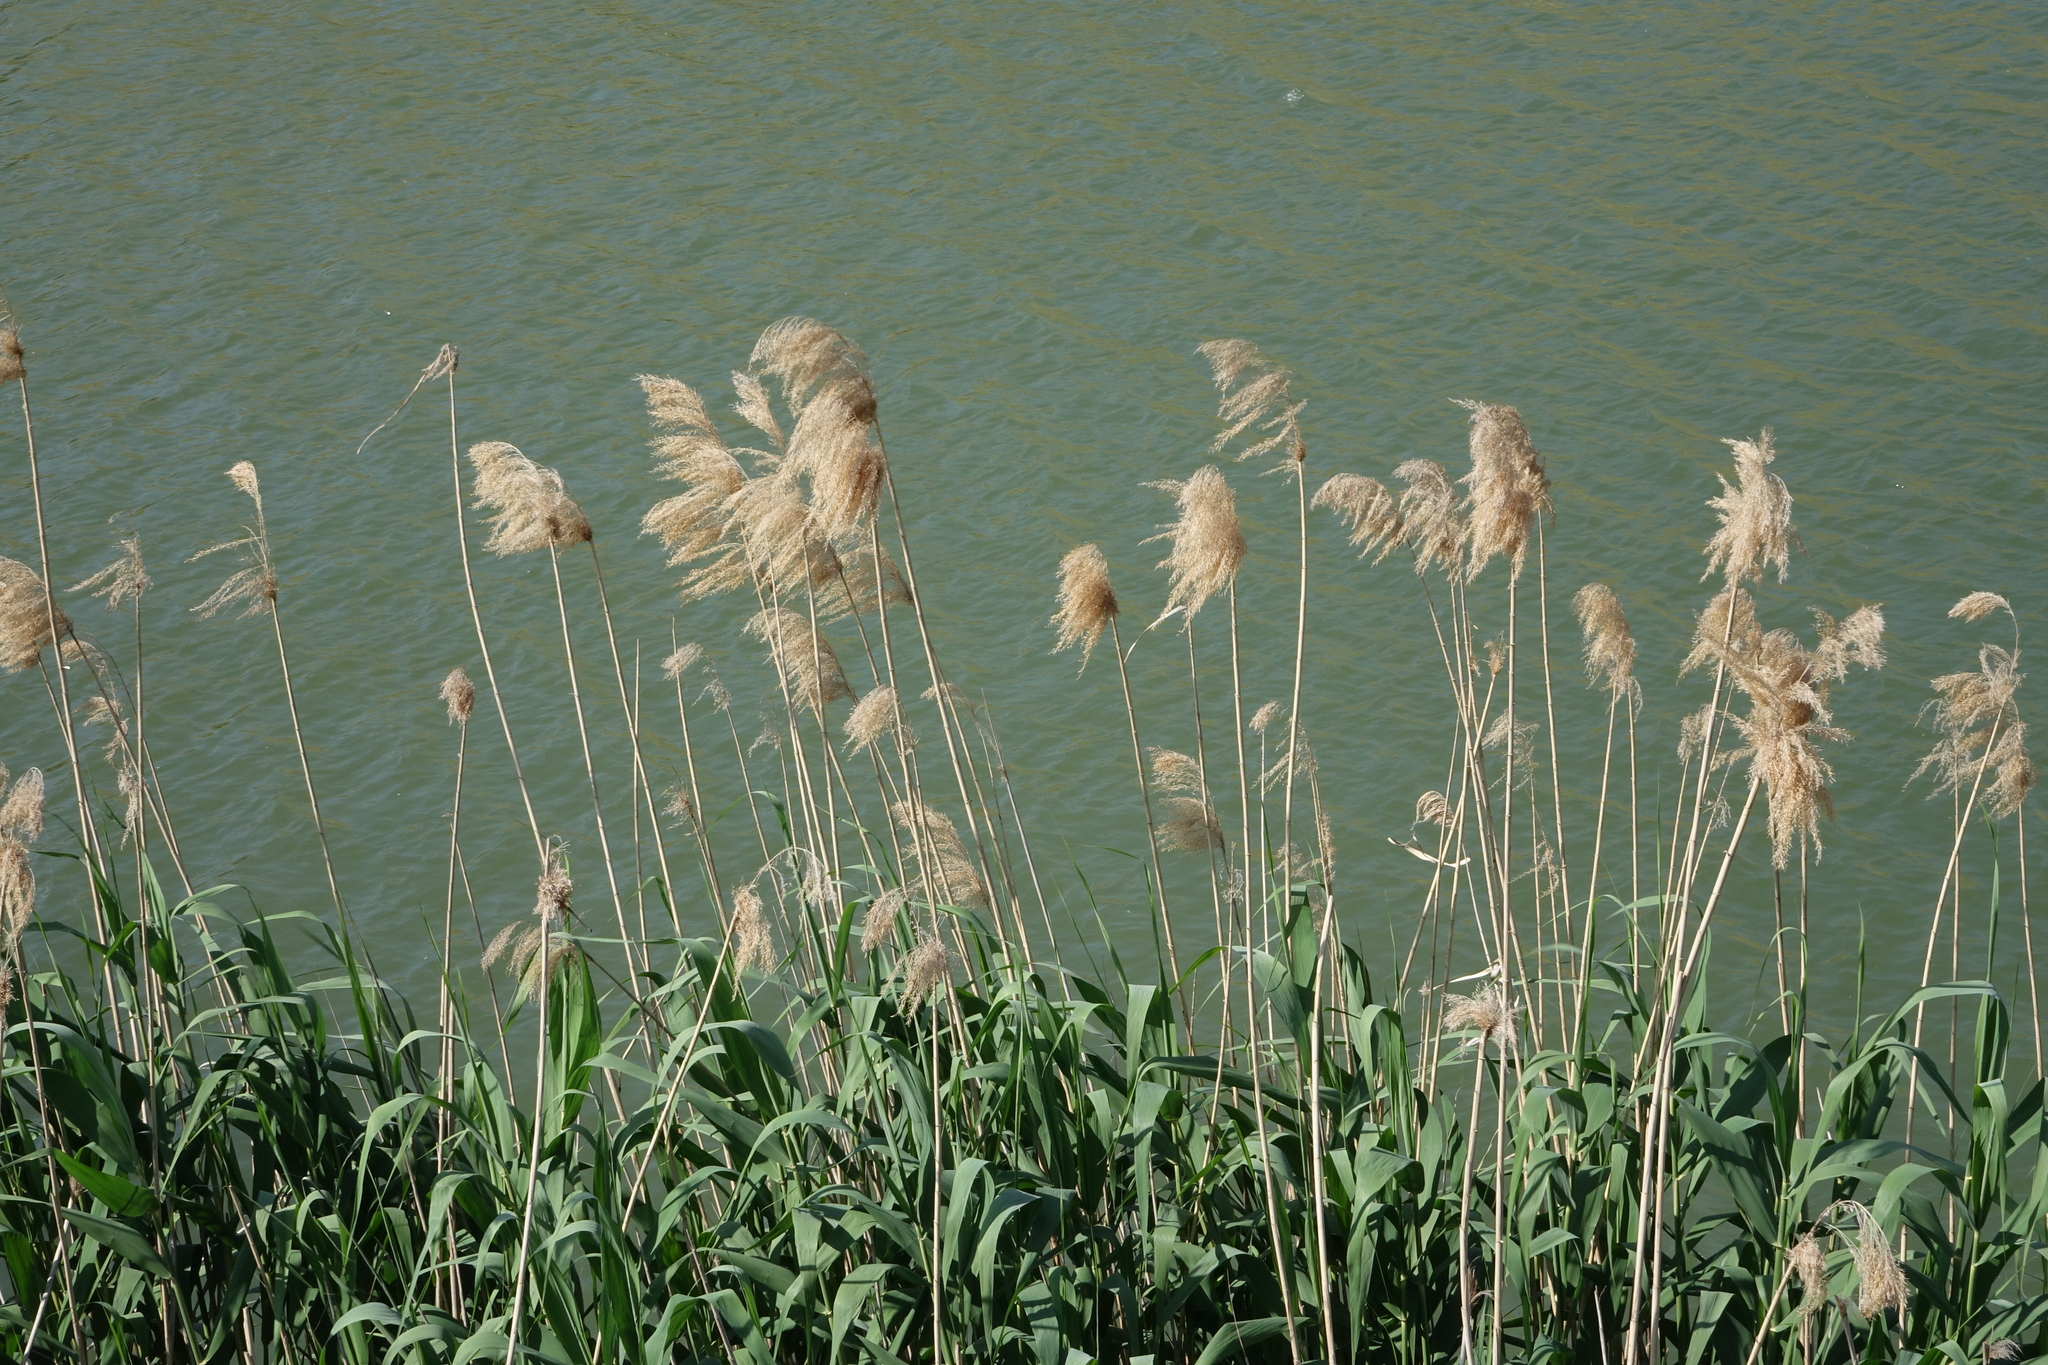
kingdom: Plantae
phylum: Tracheophyta
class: Liliopsida
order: Poales
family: Poaceae
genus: Phragmites
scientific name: Phragmites australis
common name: Common reed
